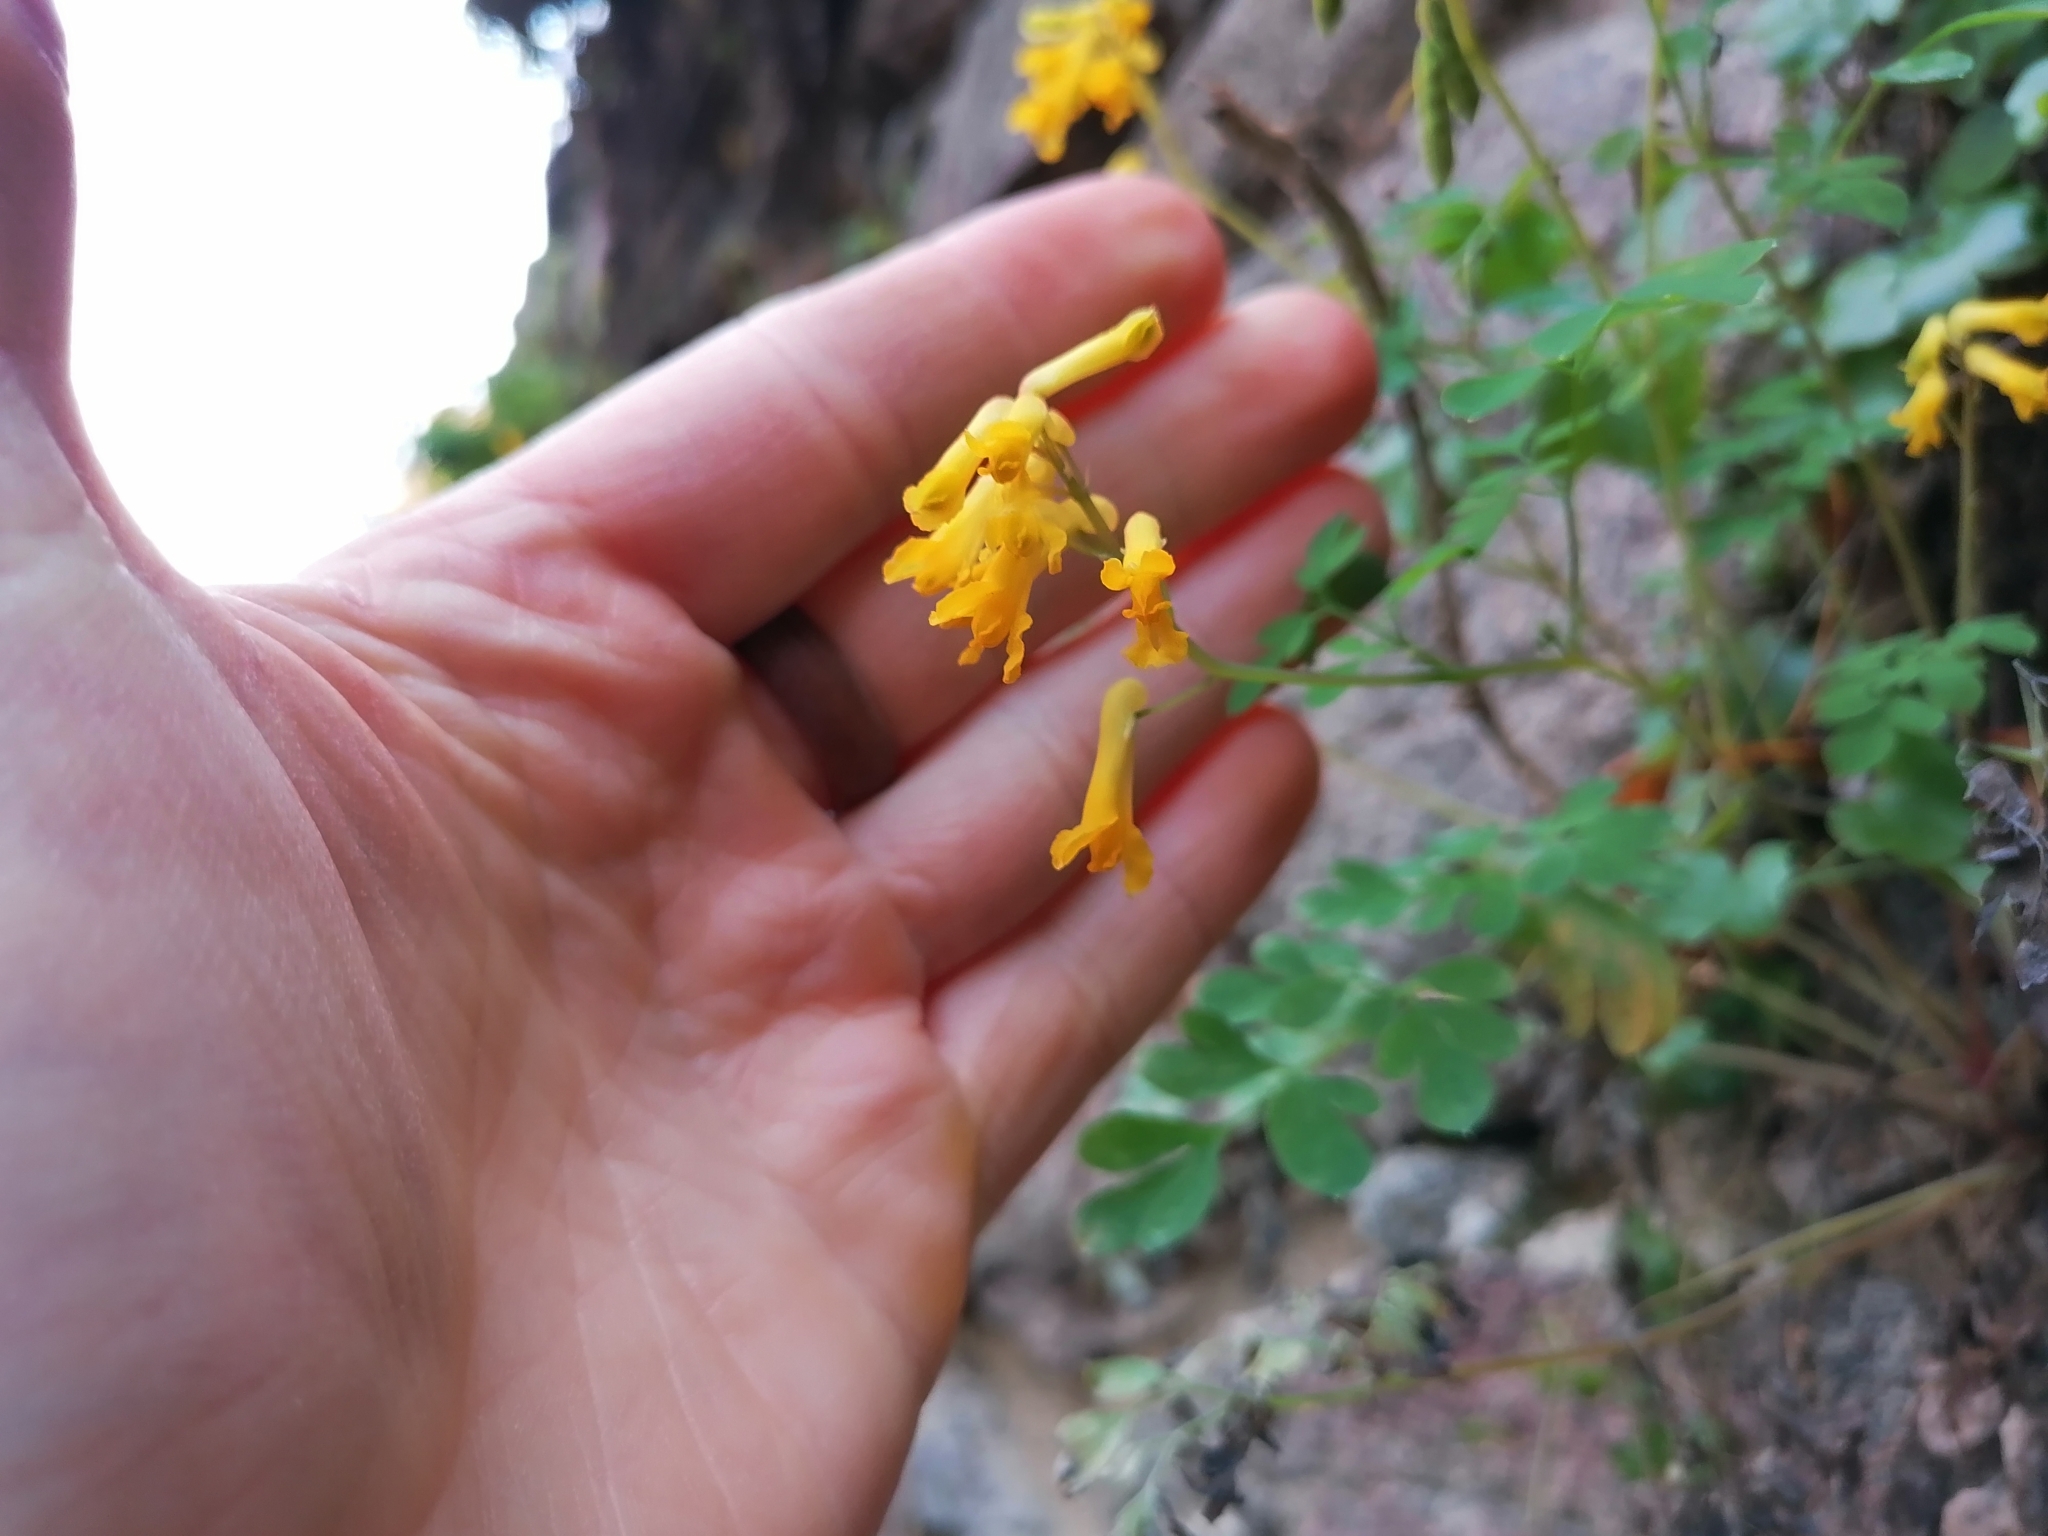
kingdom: Plantae
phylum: Tracheophyta
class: Magnoliopsida
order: Ranunculales
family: Papaveraceae
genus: Pseudofumaria
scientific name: Pseudofumaria lutea
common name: Yellow corydalis
